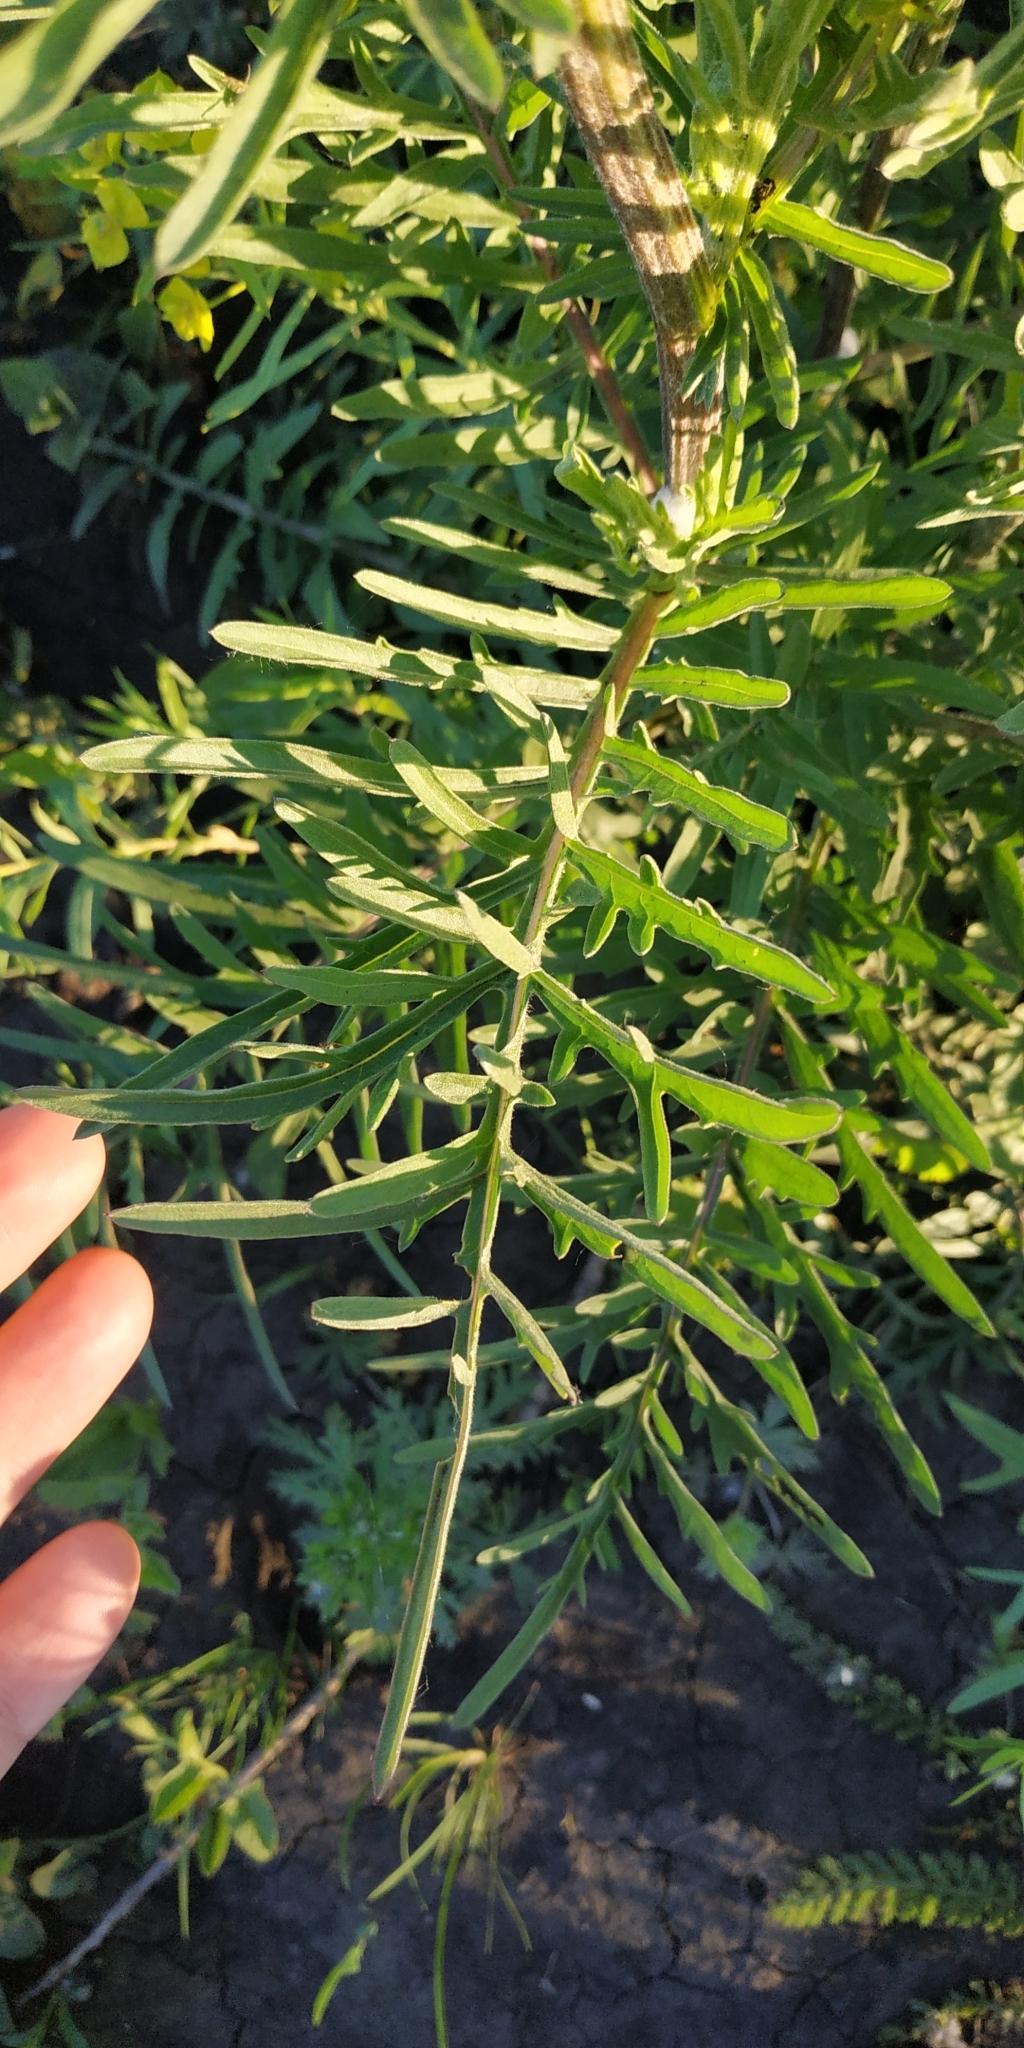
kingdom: Plantae
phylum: Tracheophyta
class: Magnoliopsida
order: Asterales
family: Asteraceae
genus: Centaurea
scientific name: Centaurea scabiosa
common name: Greater knapweed
